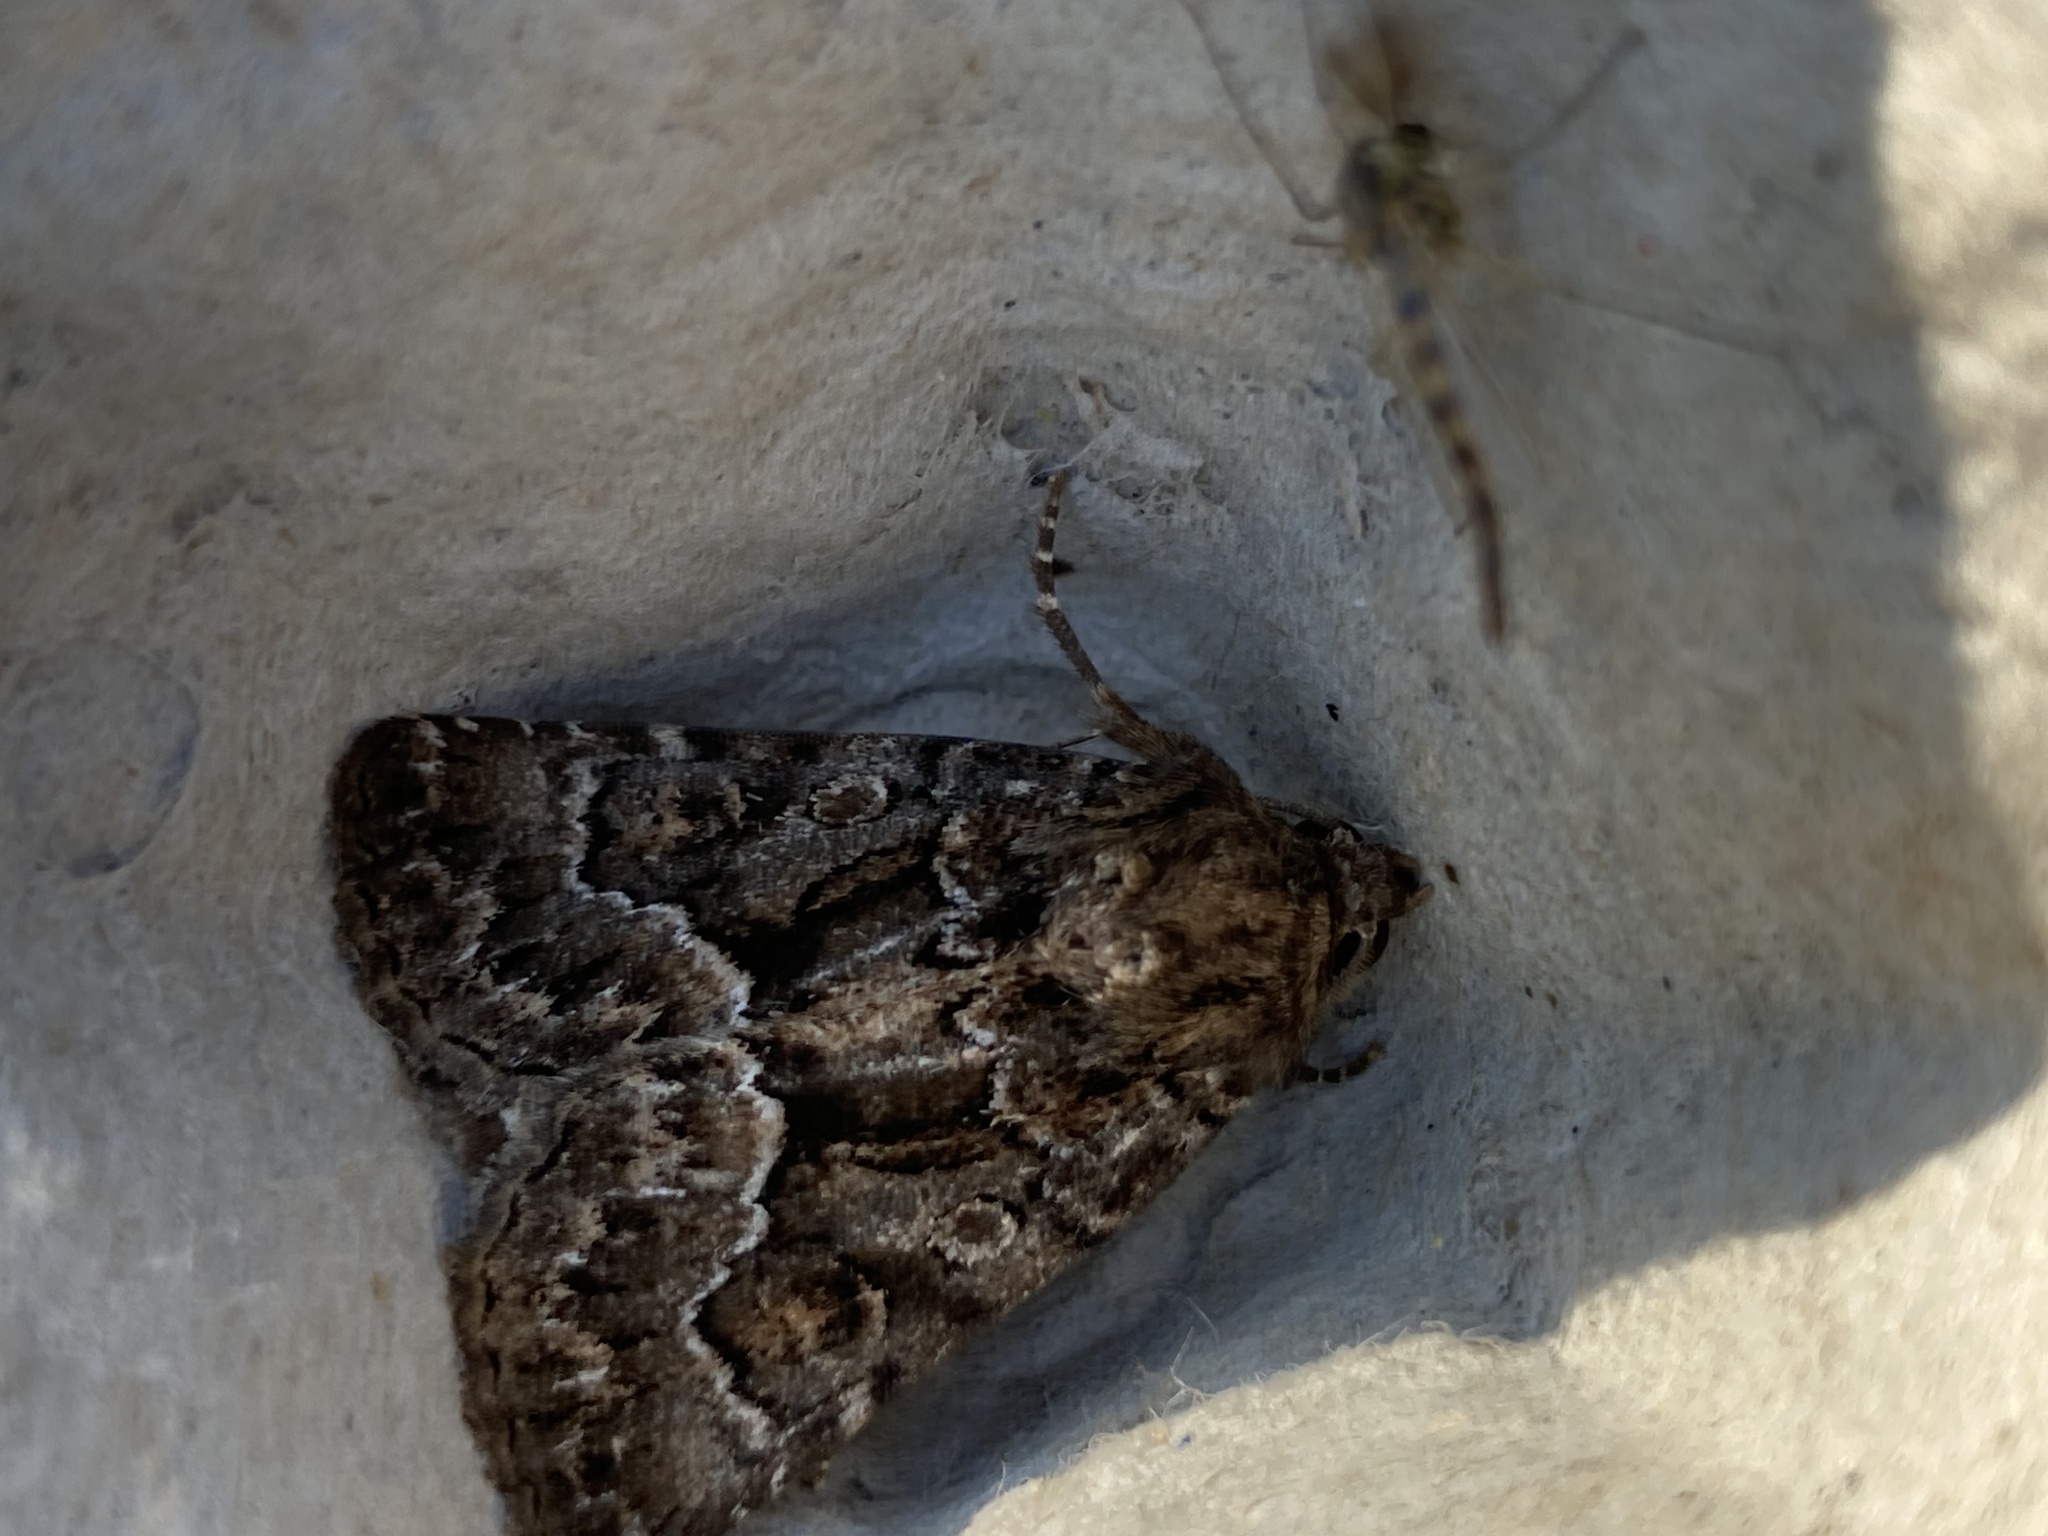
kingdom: Animalia
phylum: Arthropoda
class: Insecta
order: Lepidoptera
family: Noctuidae
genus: Thalpophila
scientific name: Thalpophila matura
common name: Straw underwing
